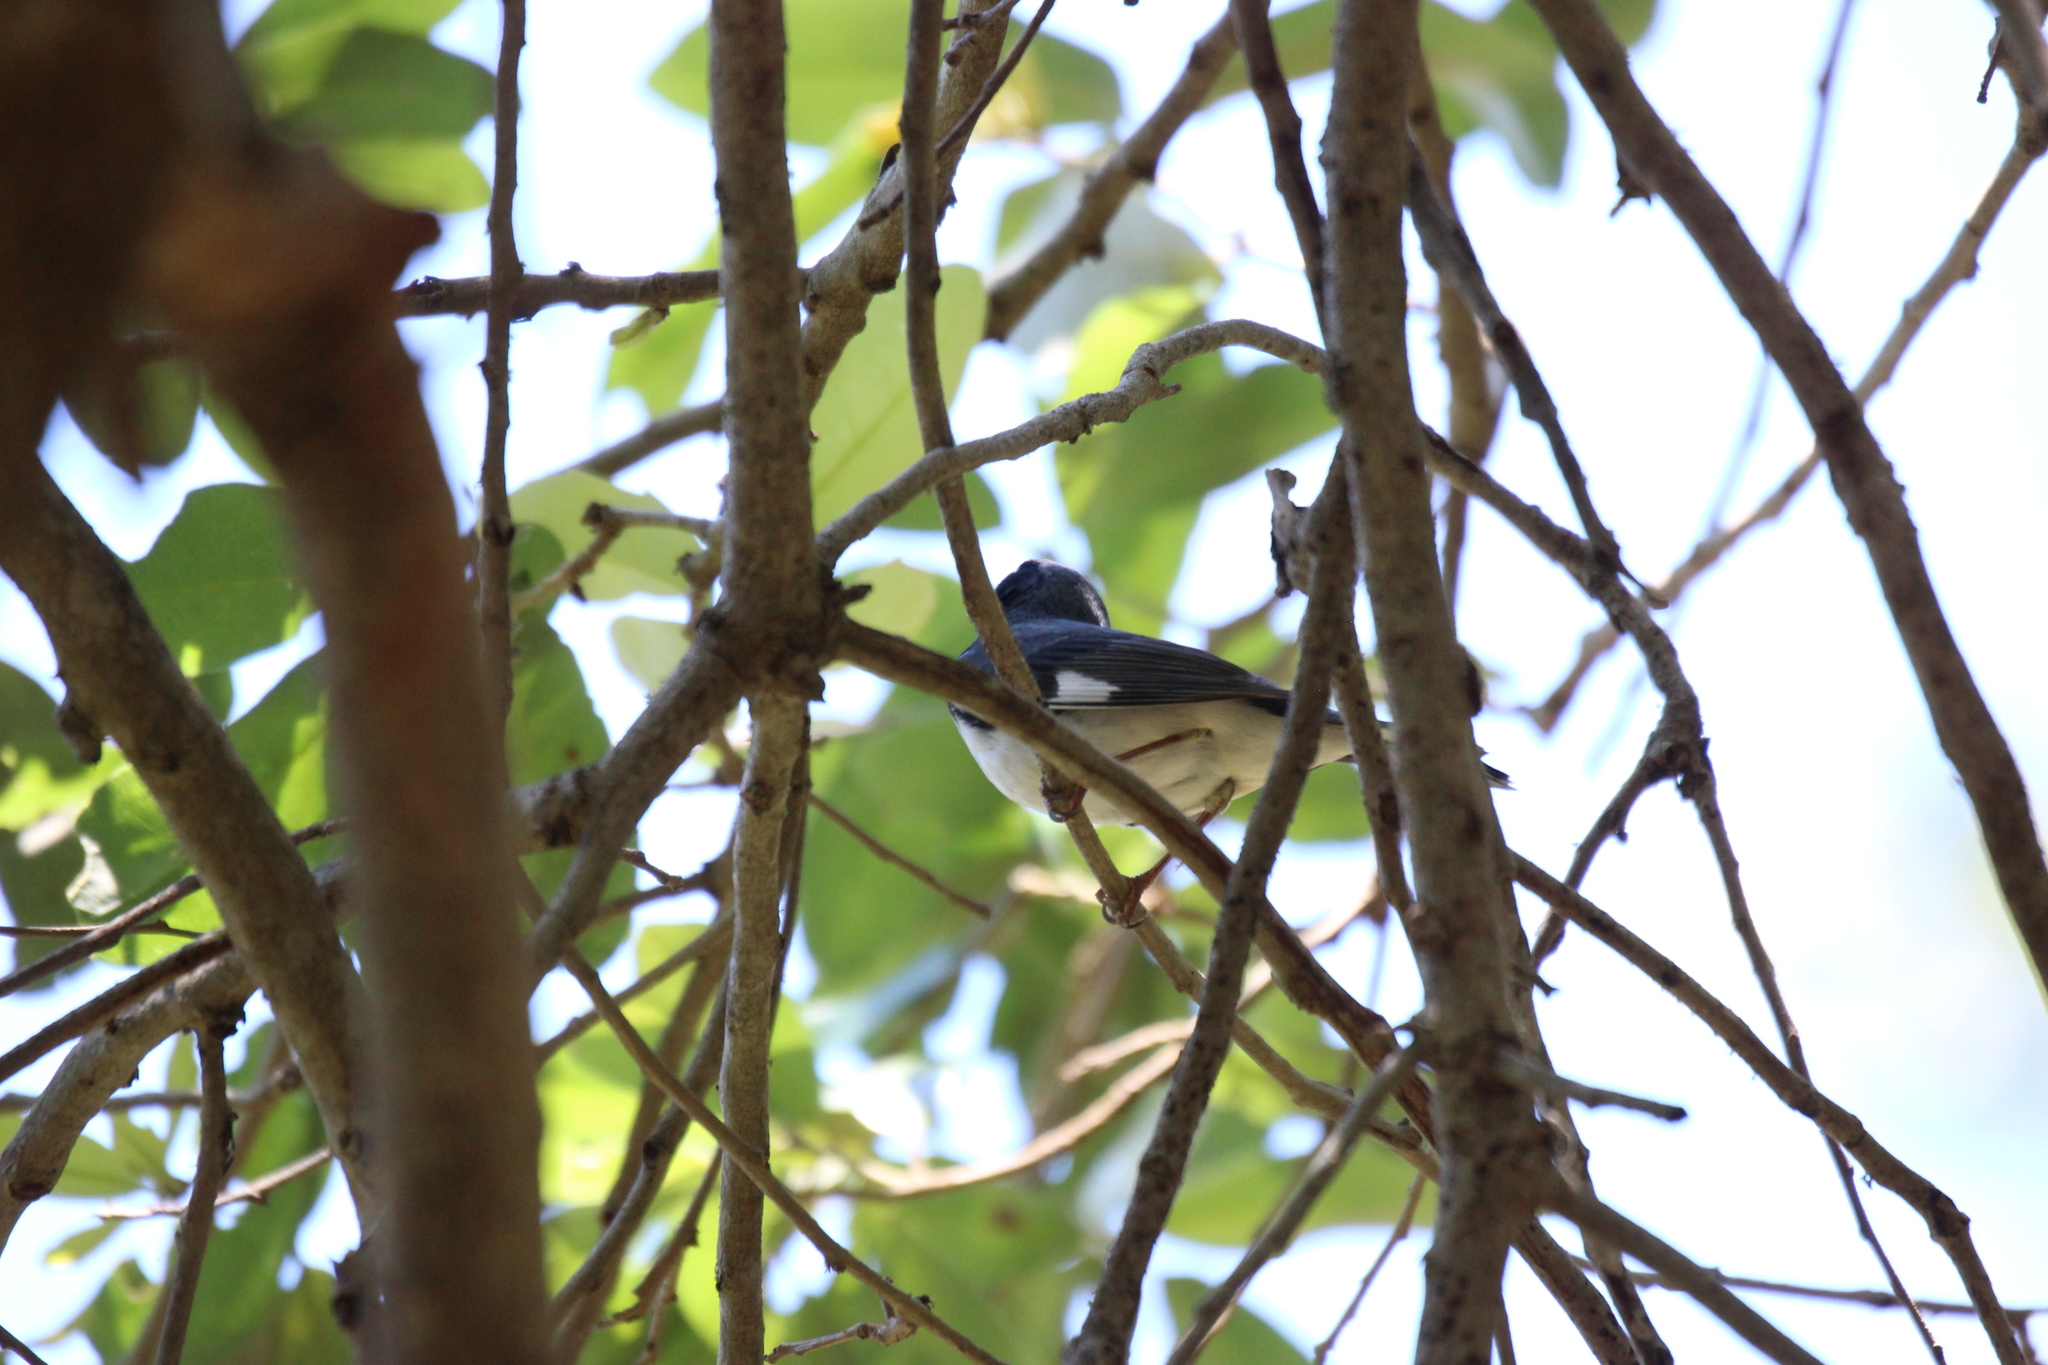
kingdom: Animalia
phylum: Chordata
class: Aves
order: Passeriformes
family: Parulidae
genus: Setophaga
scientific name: Setophaga caerulescens
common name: Black-throated blue warbler
